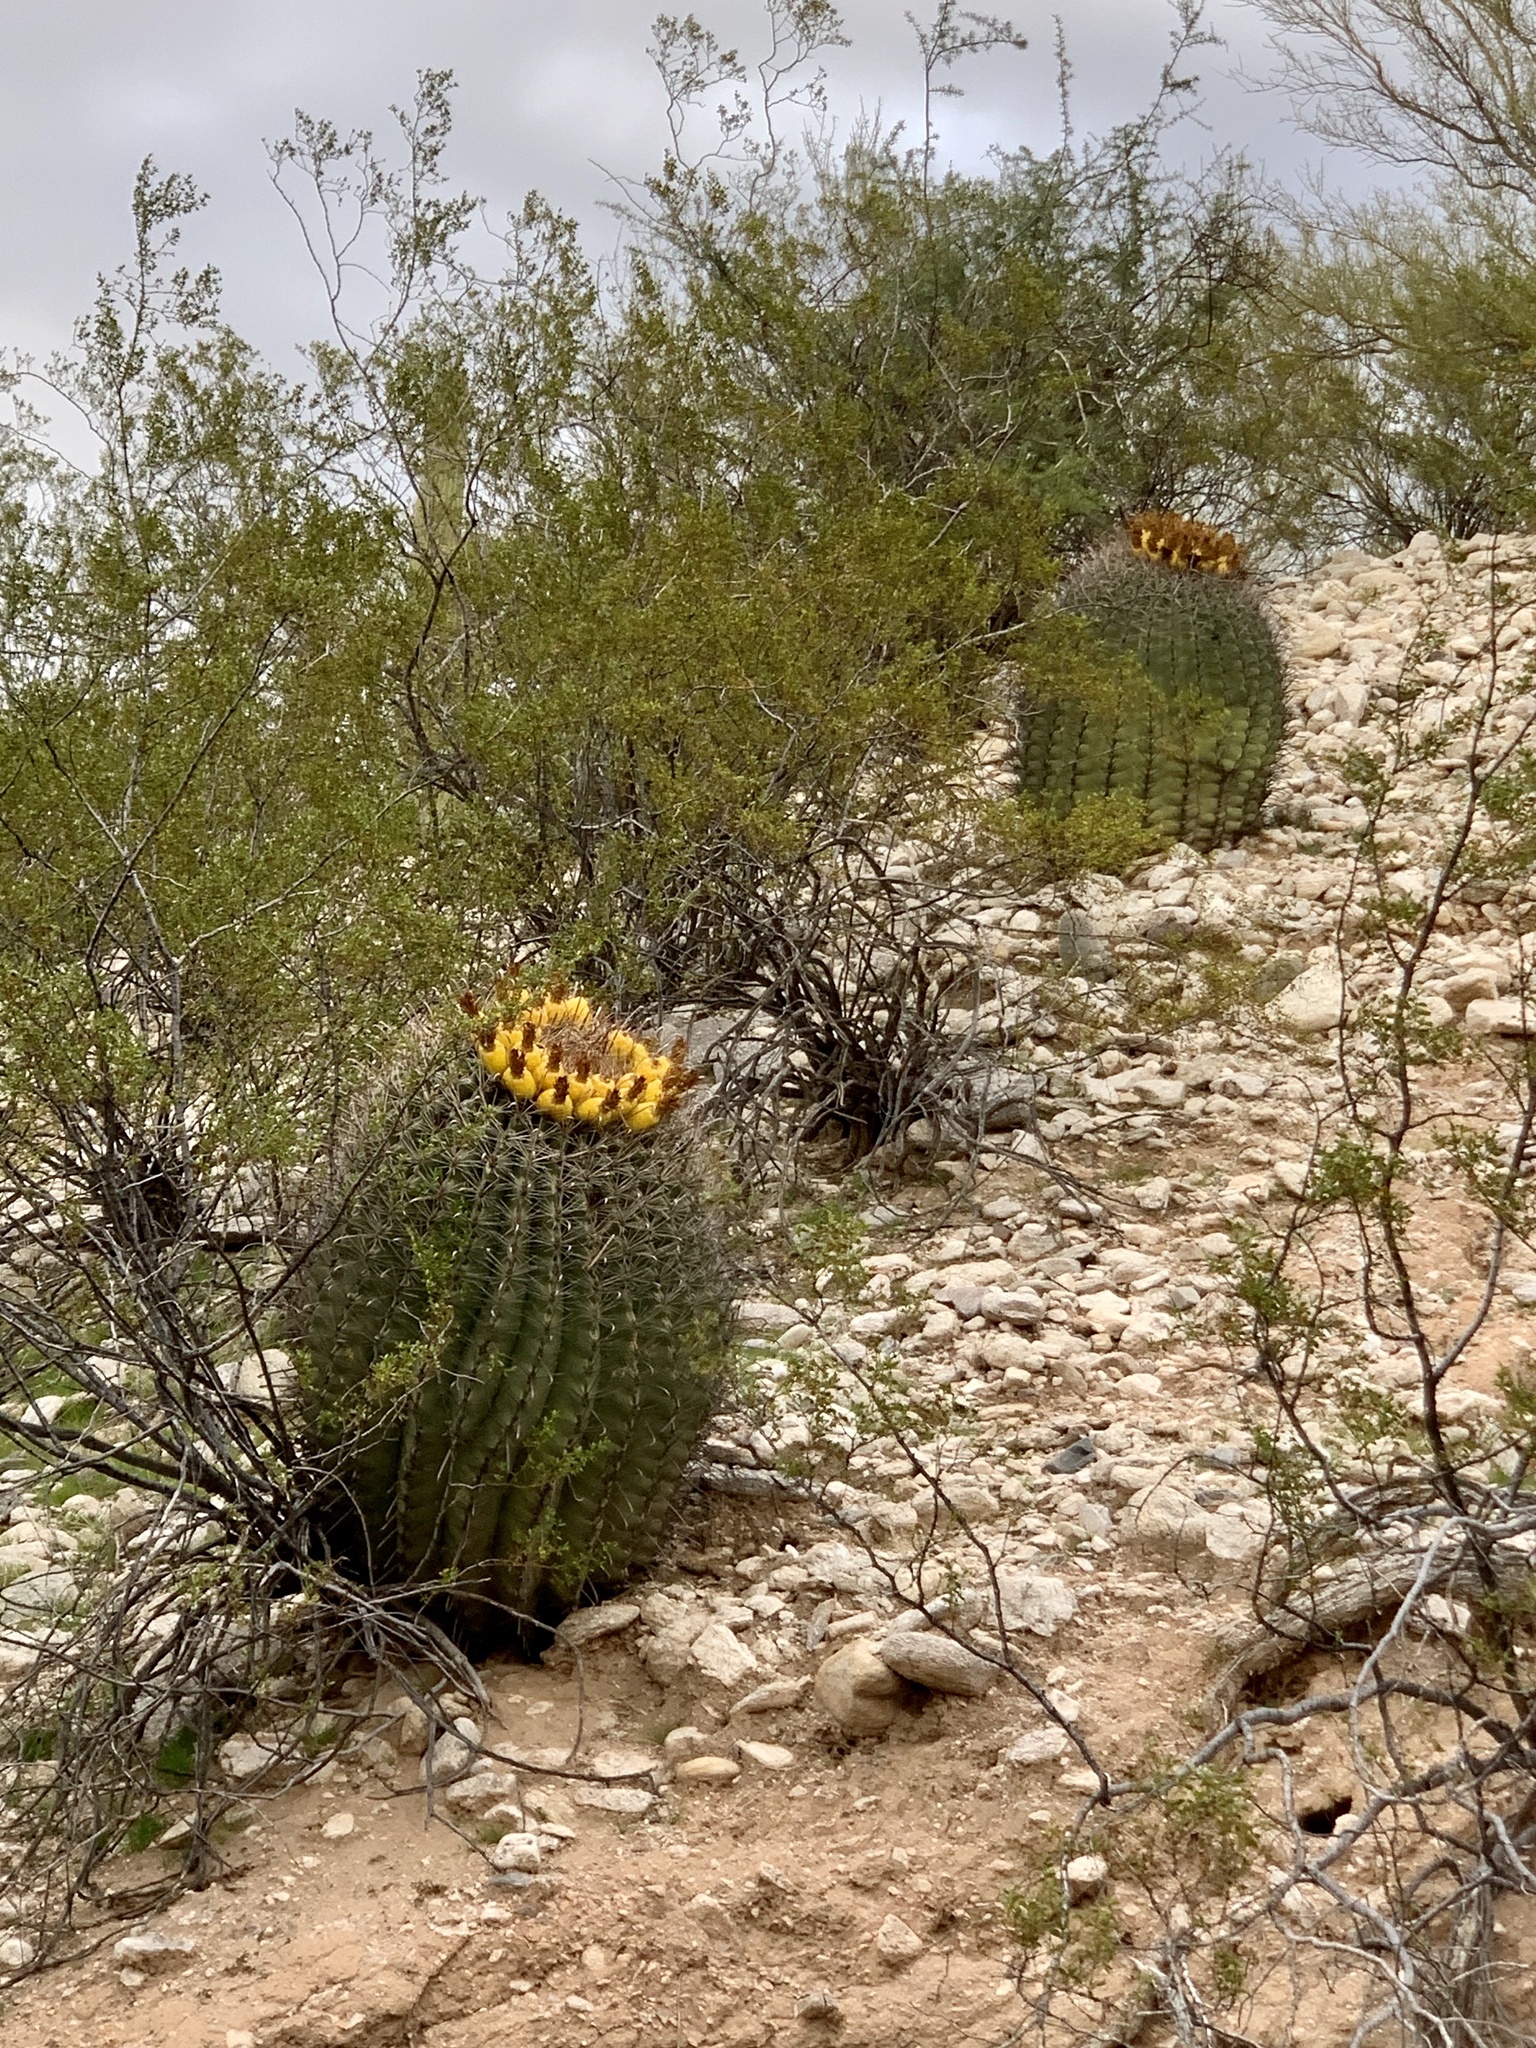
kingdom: Plantae
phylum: Tracheophyta
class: Magnoliopsida
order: Caryophyllales
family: Cactaceae
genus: Ferocactus
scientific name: Ferocactus wislizeni
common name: Candy barrel cactus
